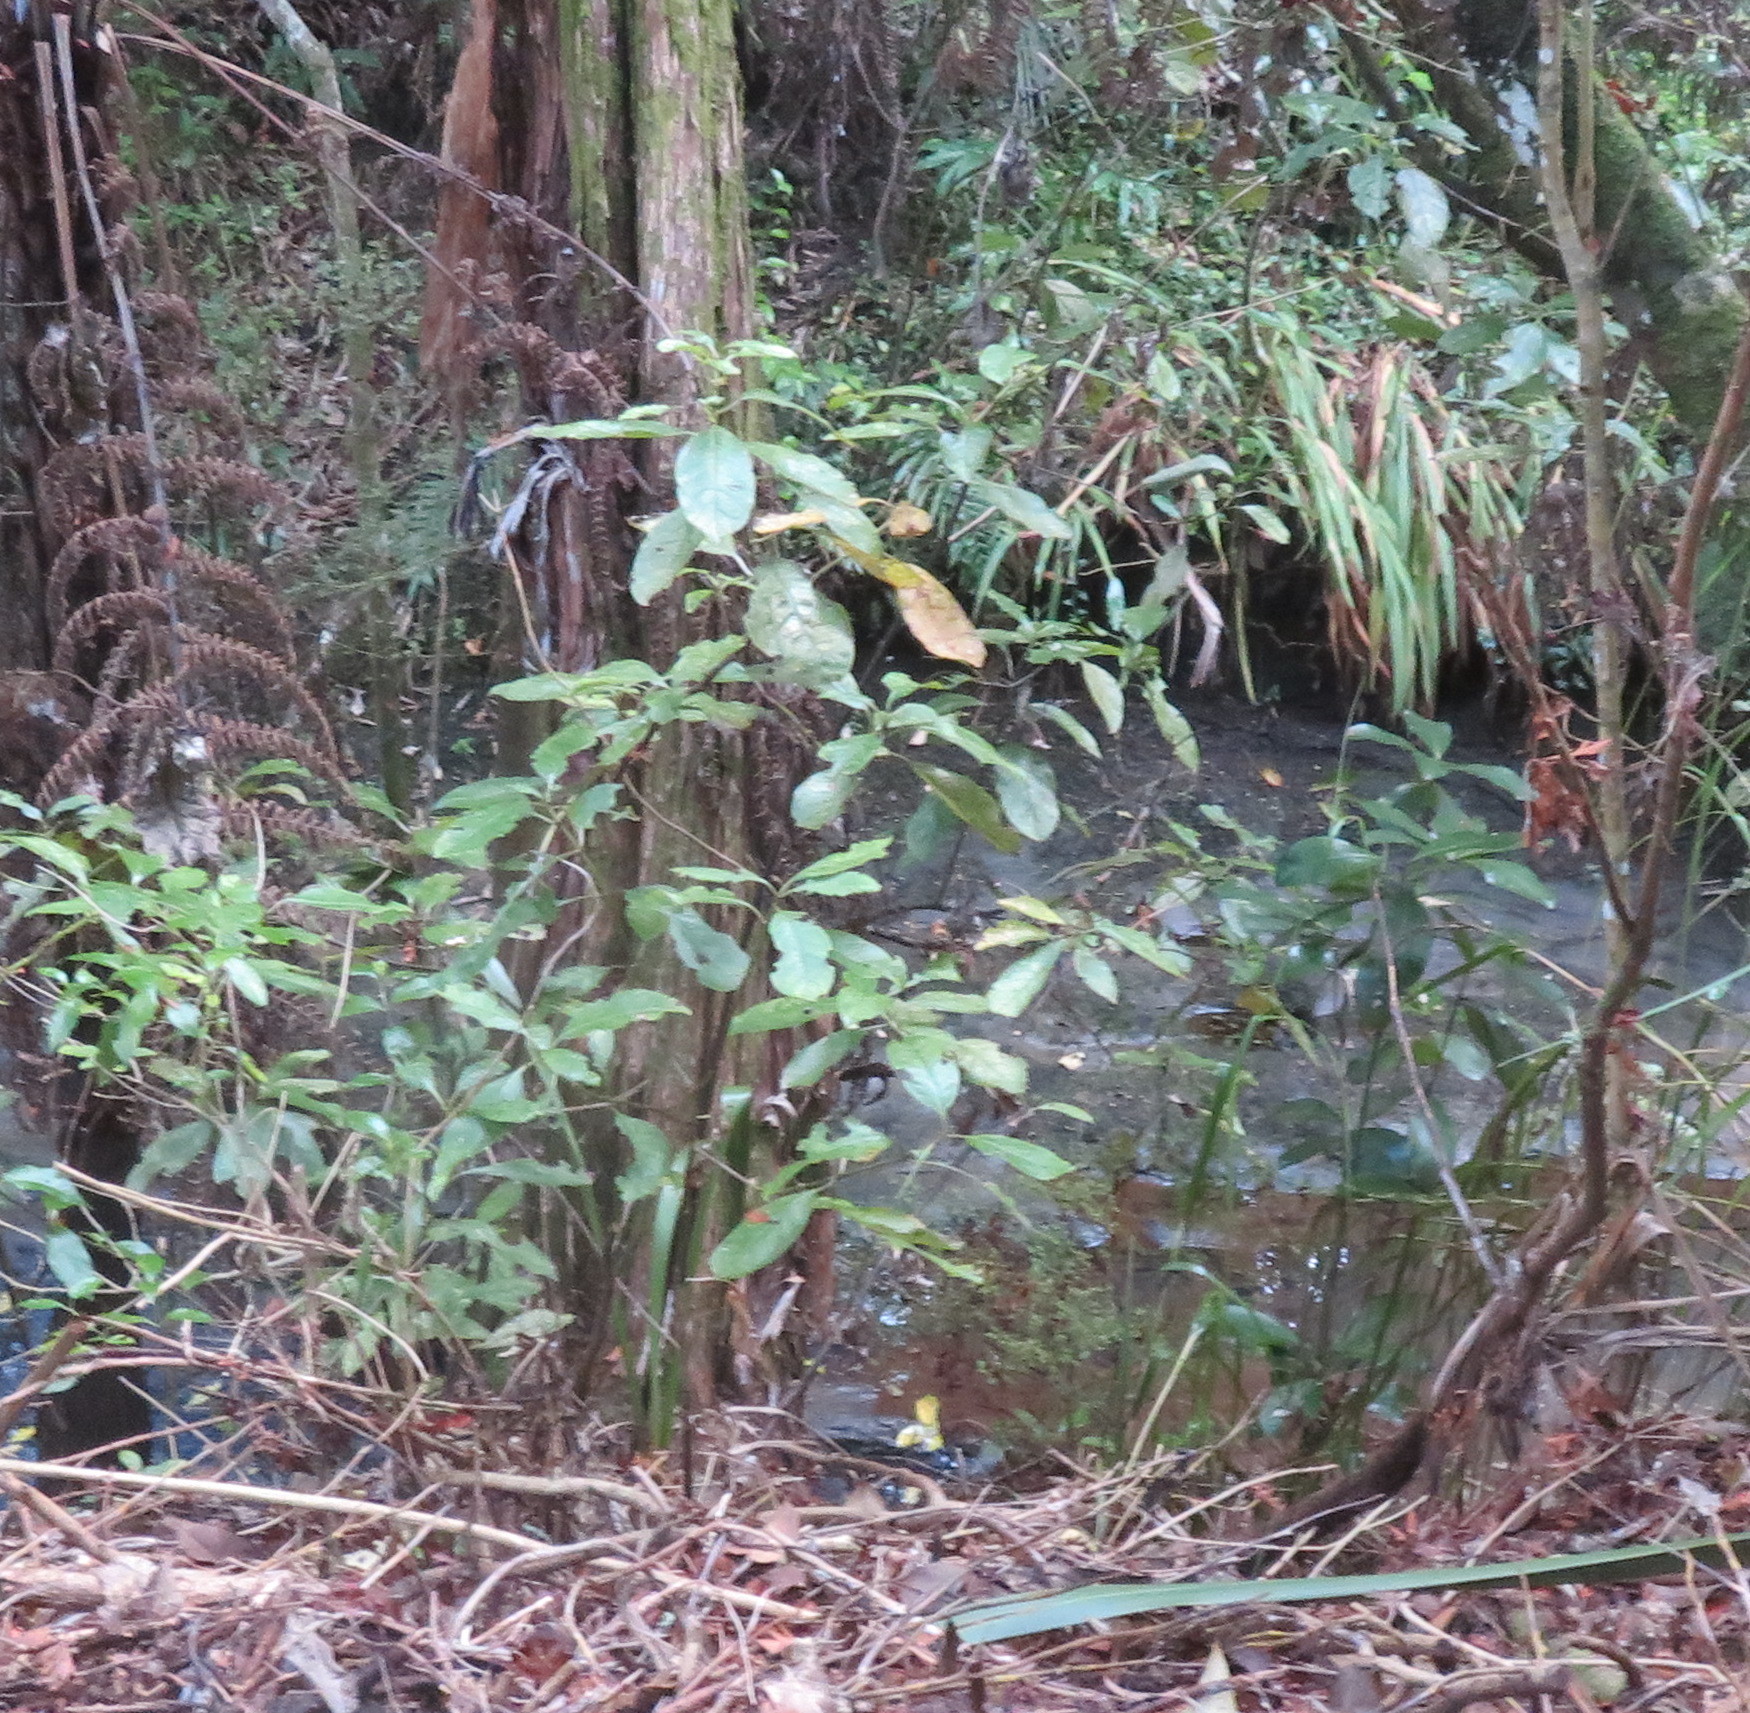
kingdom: Plantae
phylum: Tracheophyta
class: Magnoliopsida
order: Gentianales
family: Rubiaceae
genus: Coprosma
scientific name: Coprosma autumnalis
